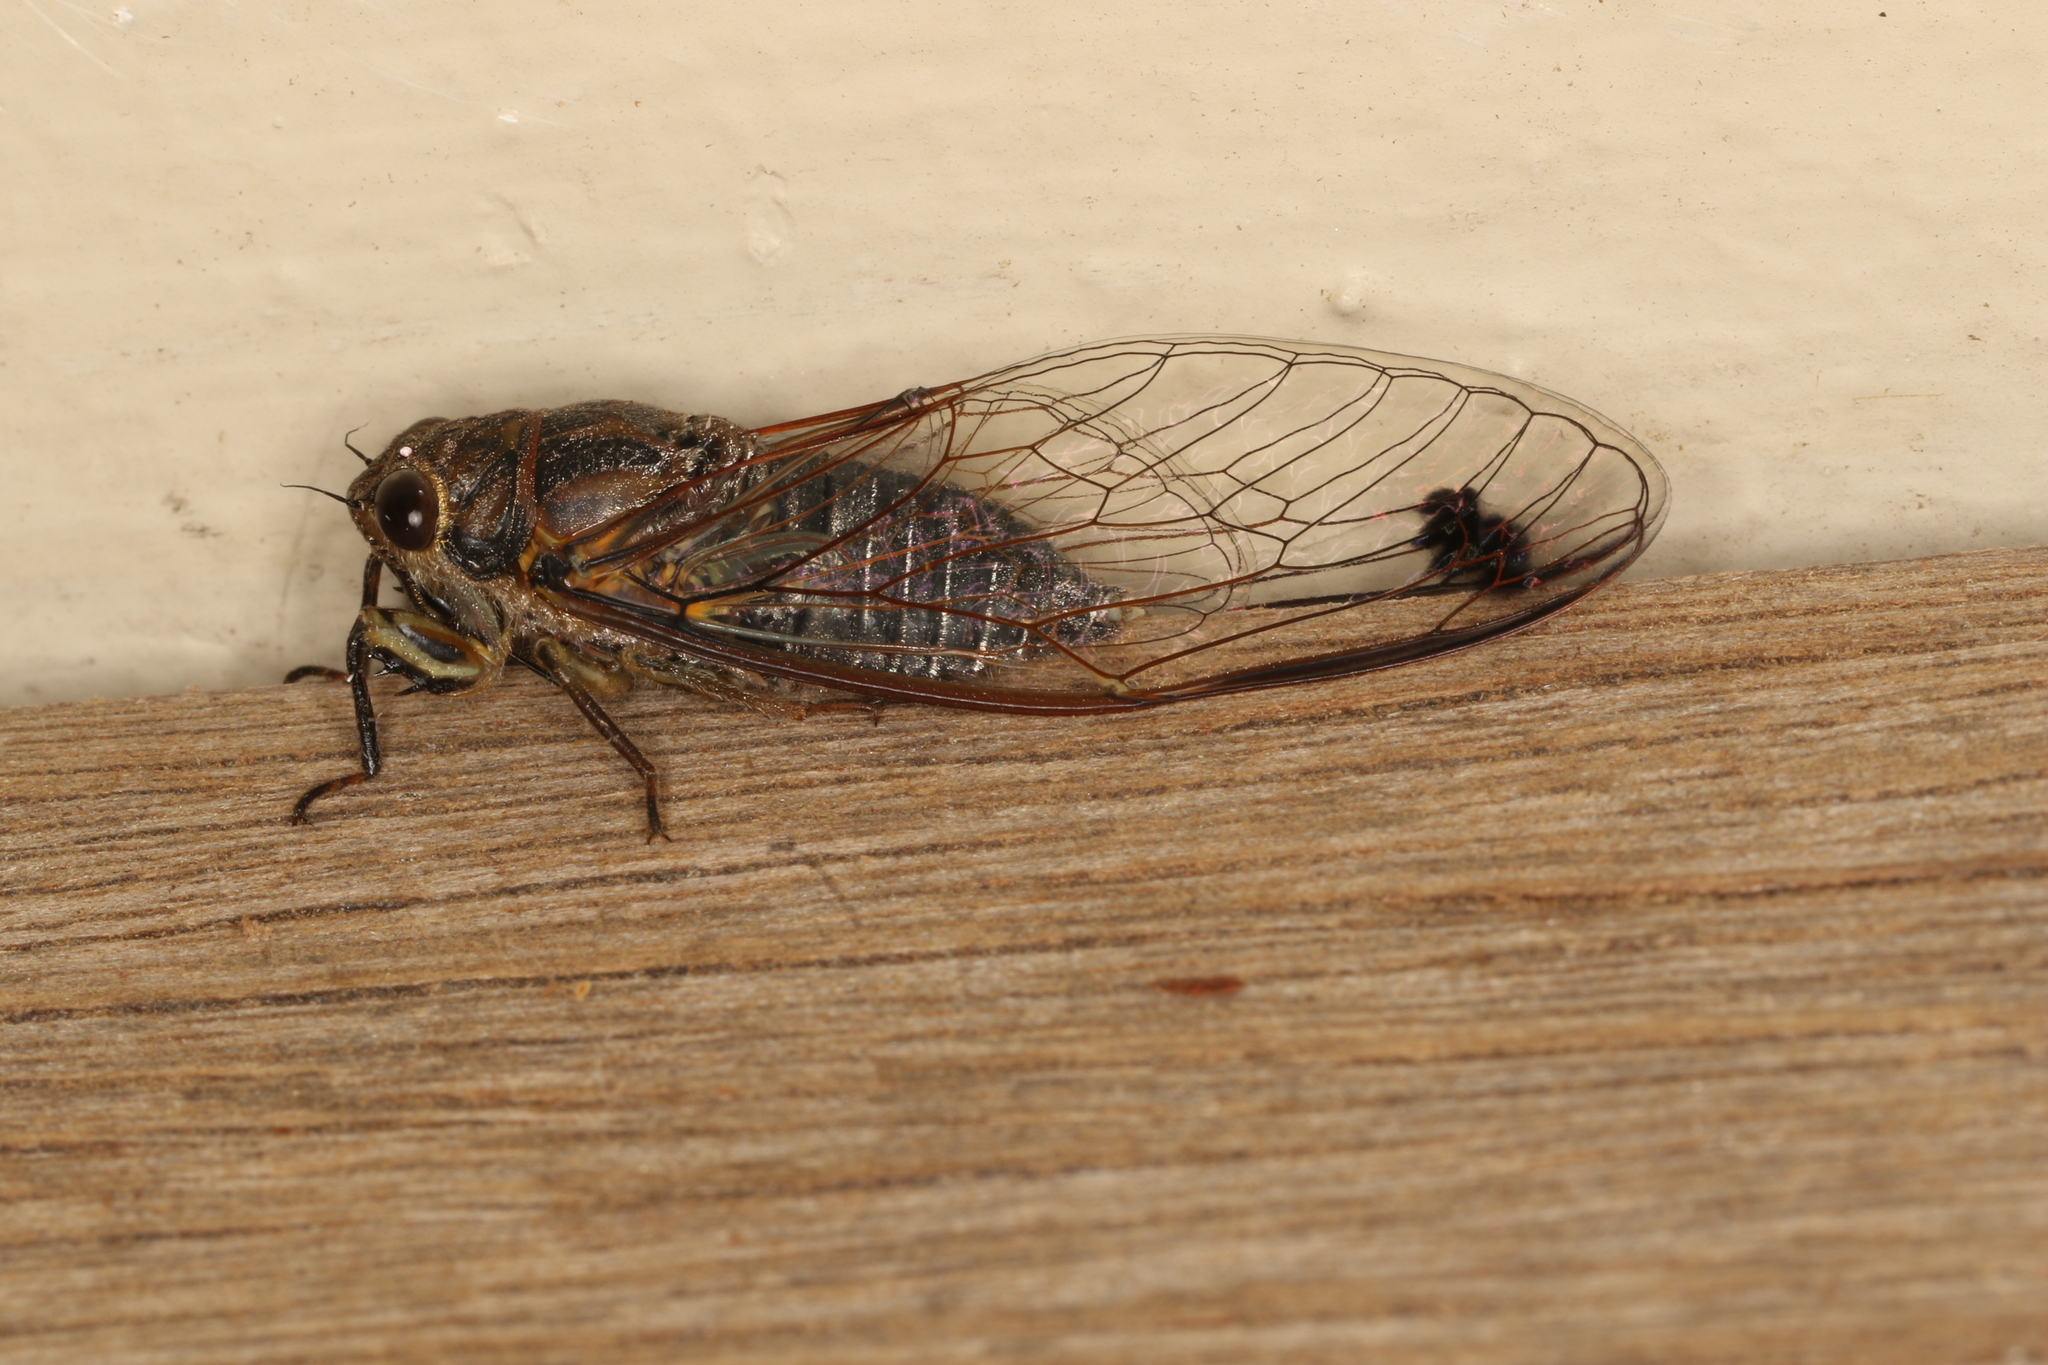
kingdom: Animalia
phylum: Arthropoda
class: Insecta
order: Hemiptera
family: Cicadidae
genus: Galanga
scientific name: Galanga labeculata
